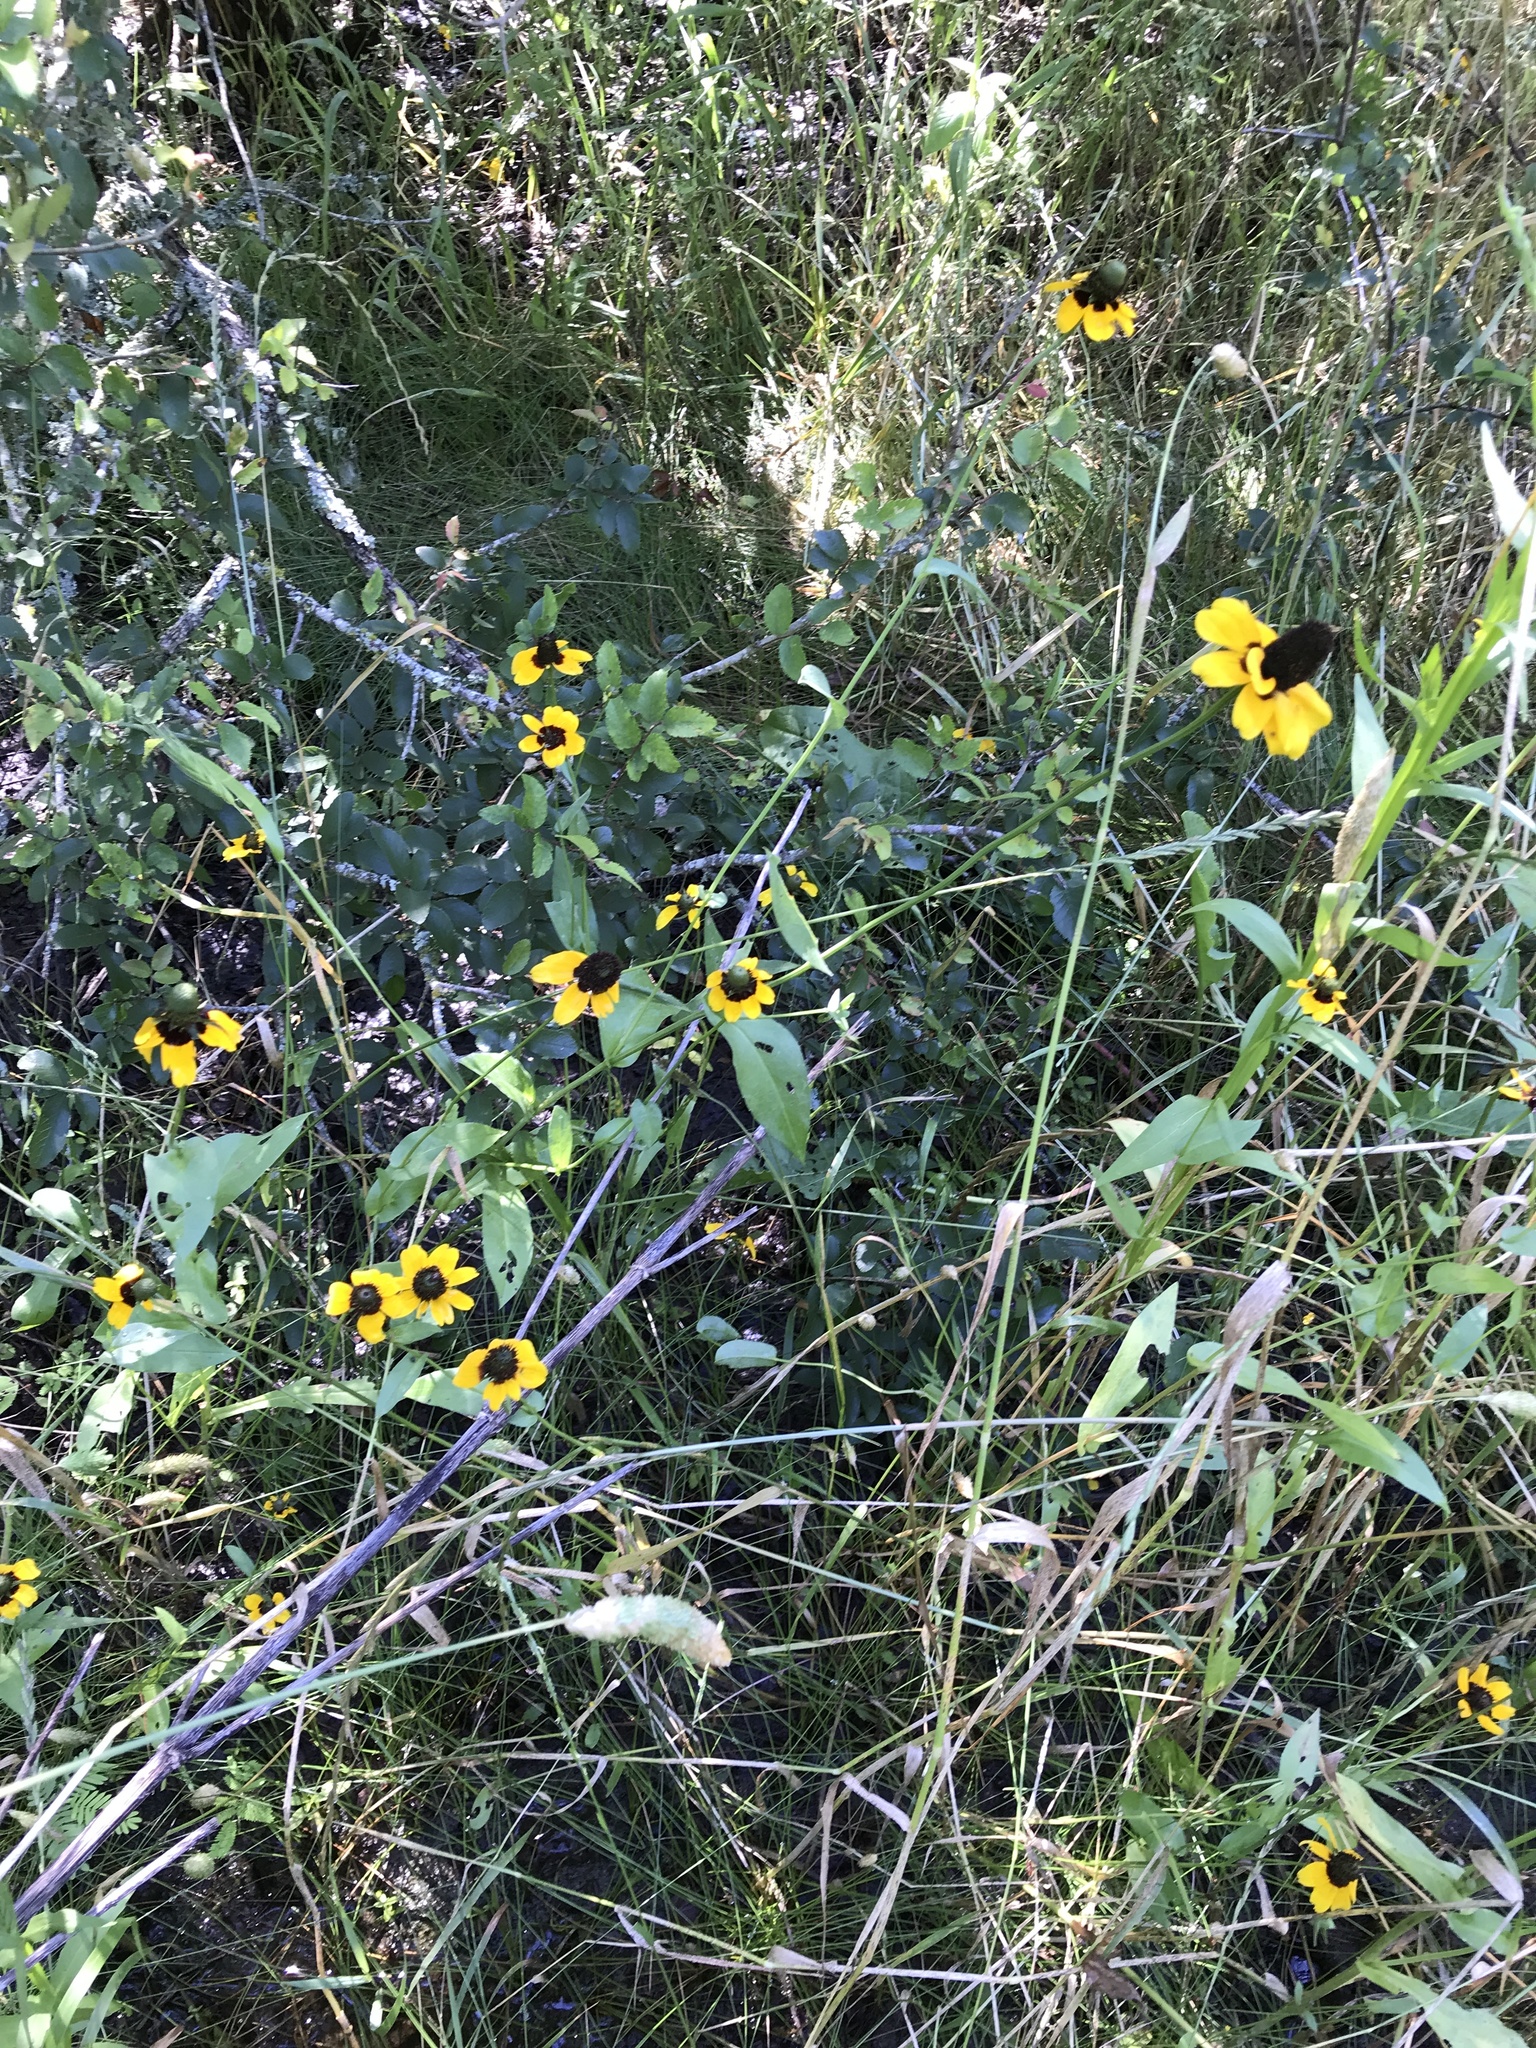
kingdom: Plantae
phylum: Tracheophyta
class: Magnoliopsida
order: Asterales
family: Asteraceae
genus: Rudbeckia
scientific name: Rudbeckia amplexicaulis
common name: Clasping-leaf coneflower
